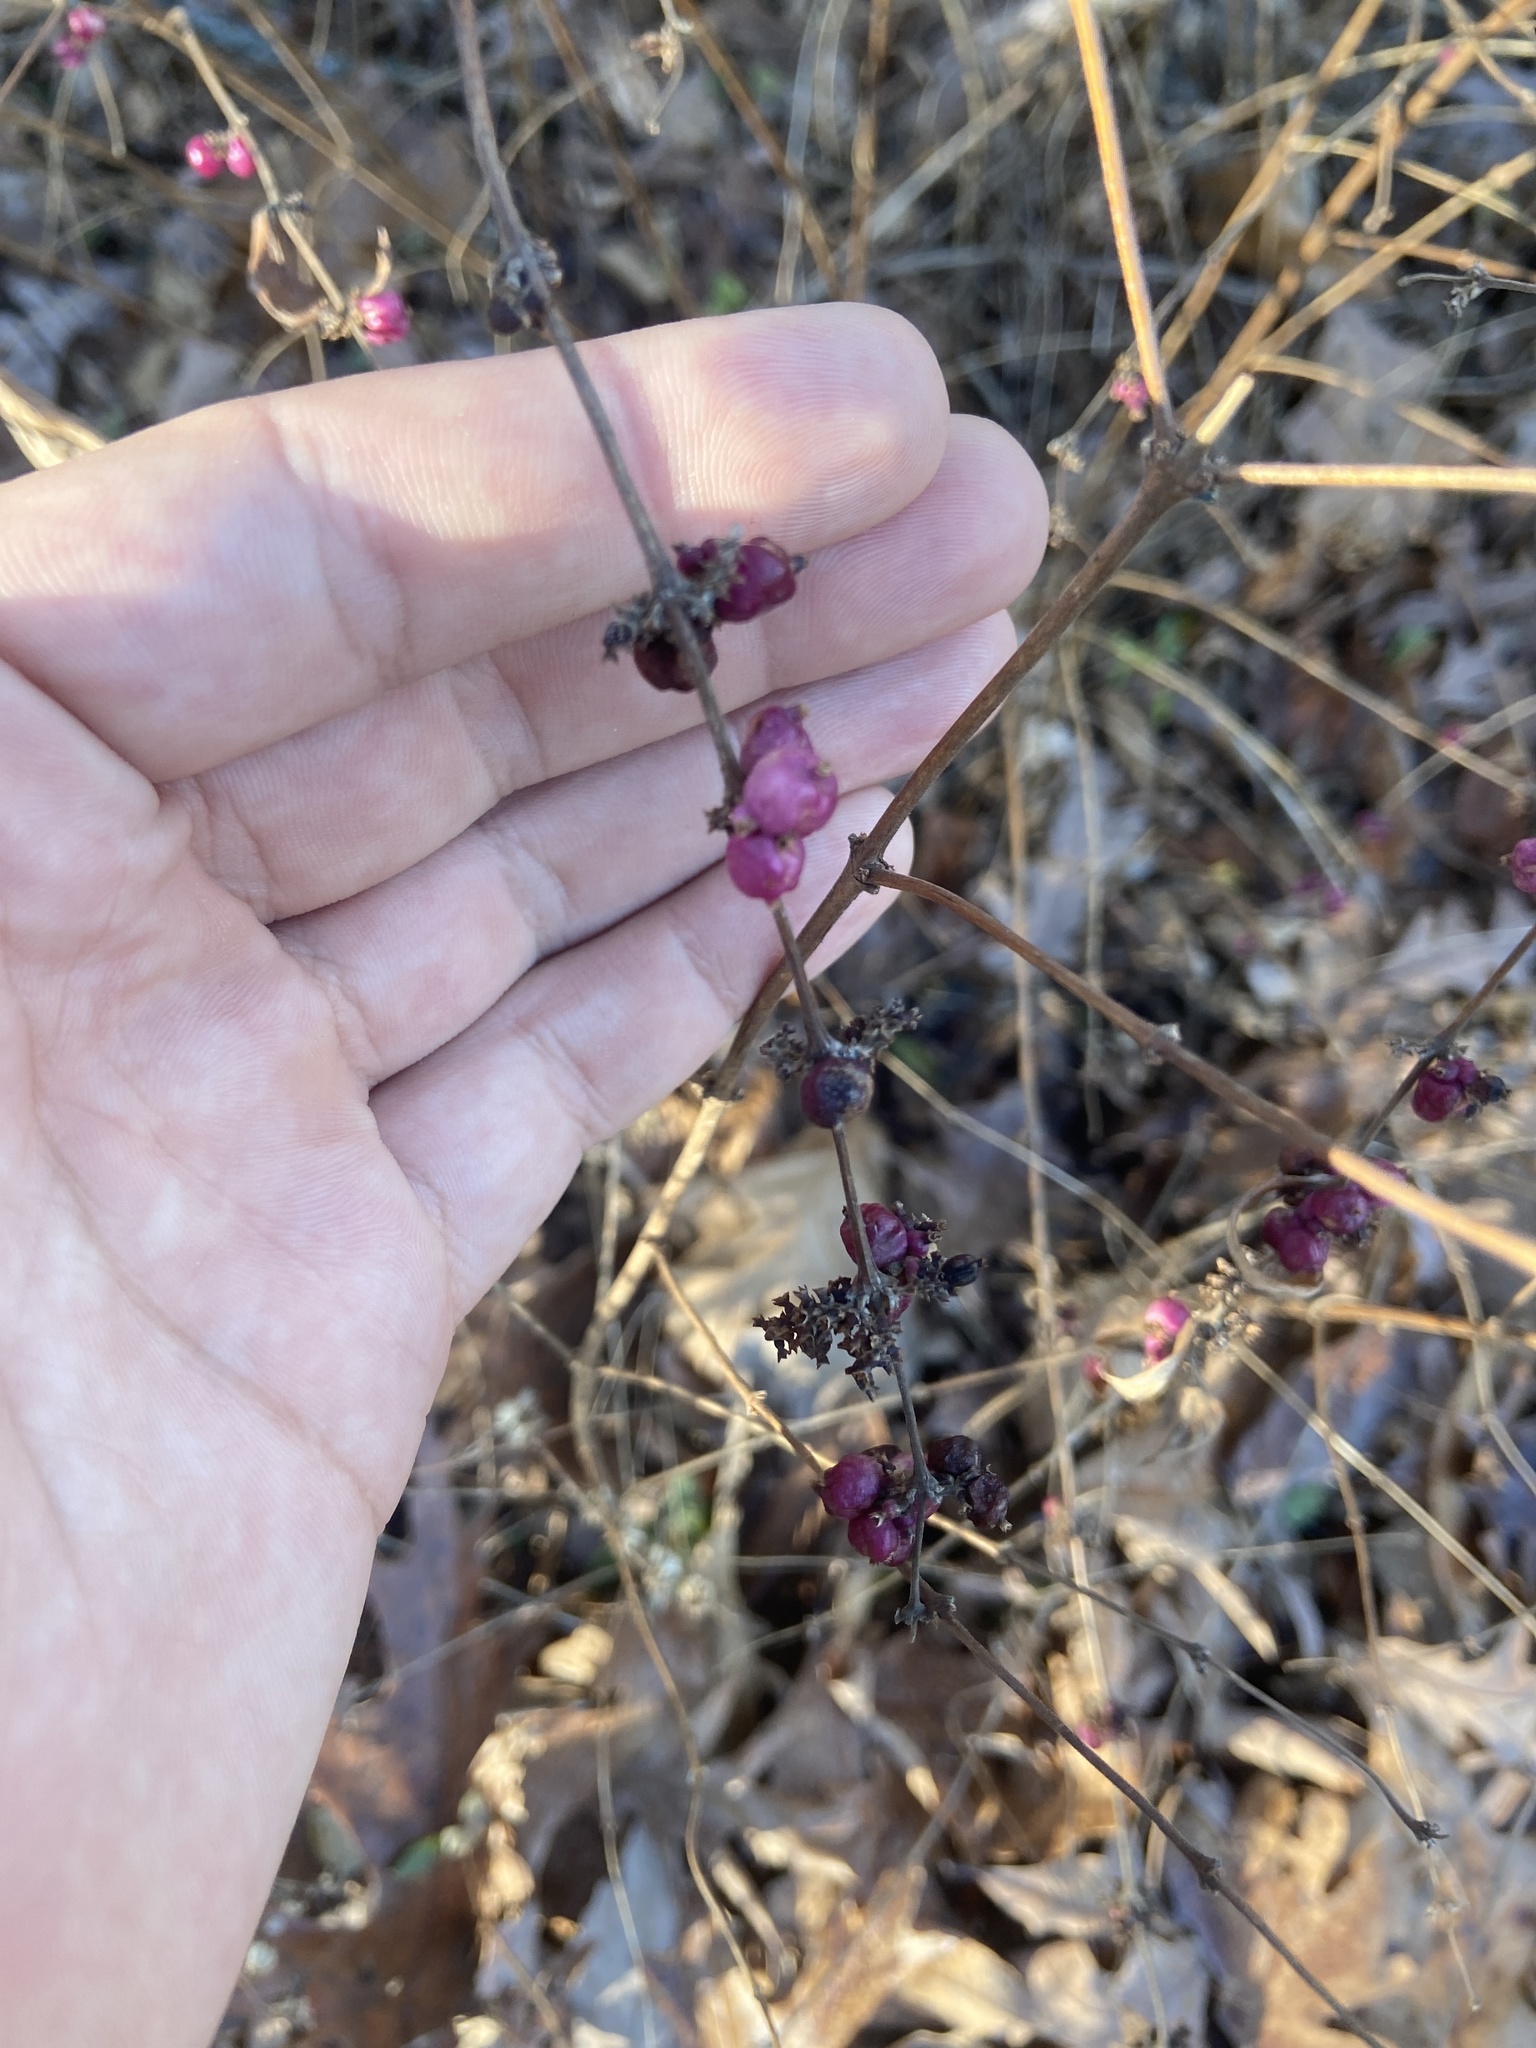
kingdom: Plantae
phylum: Tracheophyta
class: Magnoliopsida
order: Dipsacales
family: Caprifoliaceae
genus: Symphoricarpos
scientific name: Symphoricarpos orbiculatus
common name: Coralberry
